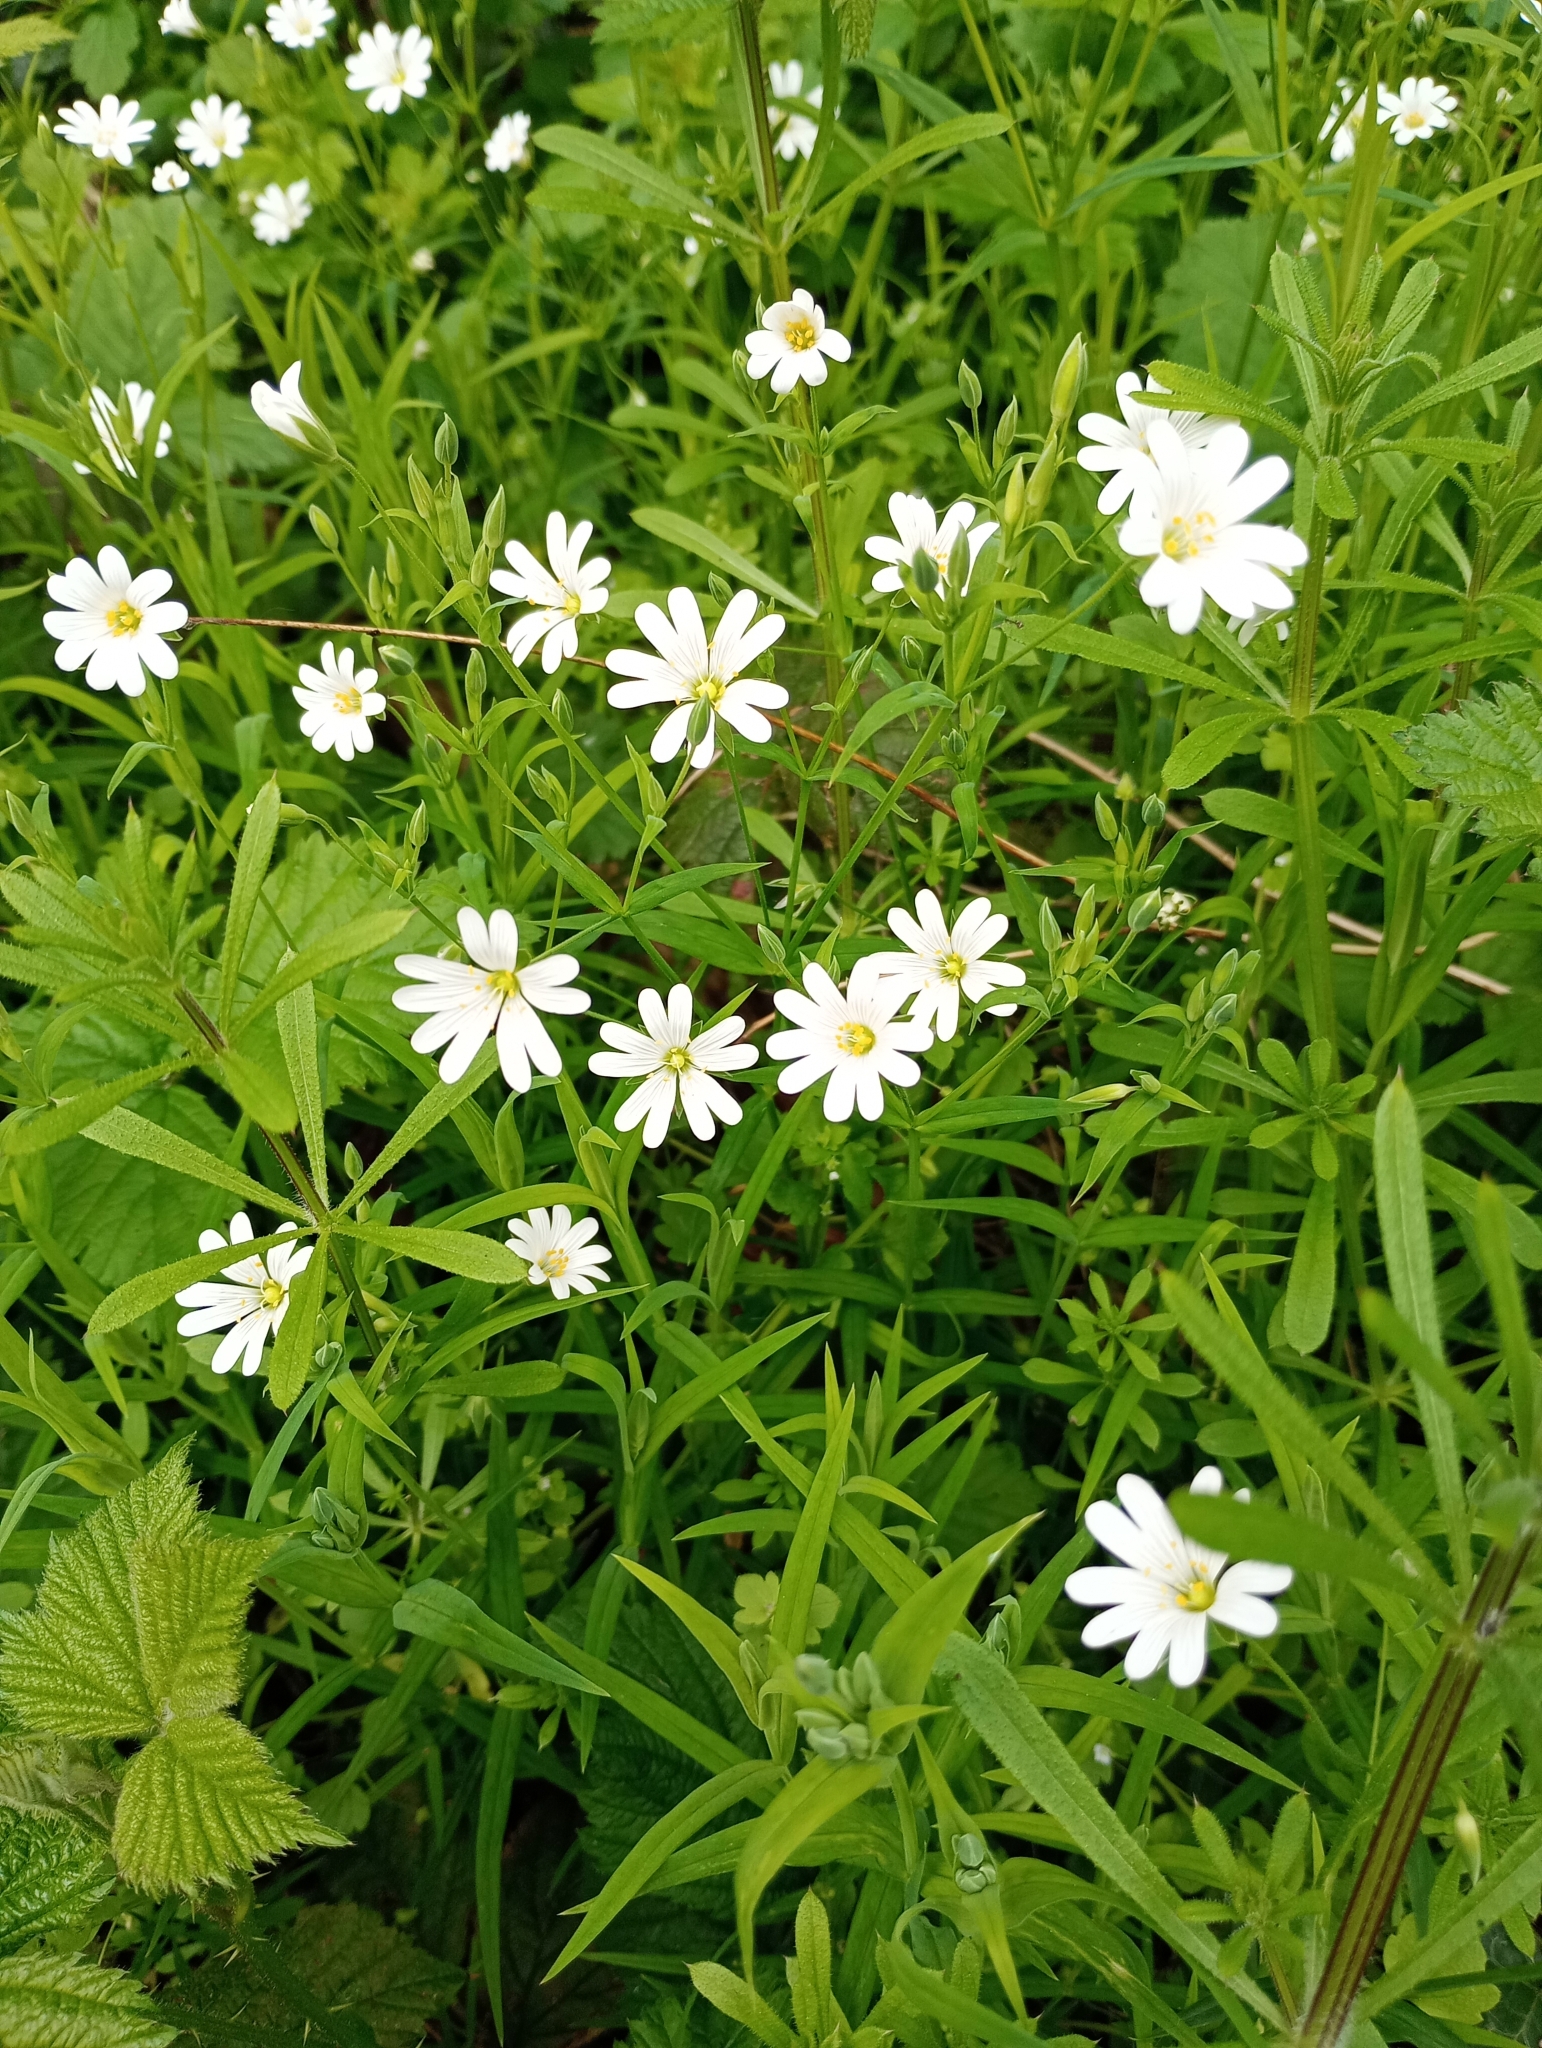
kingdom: Plantae
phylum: Tracheophyta
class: Magnoliopsida
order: Caryophyllales
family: Caryophyllaceae
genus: Rabelera
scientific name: Rabelera holostea
